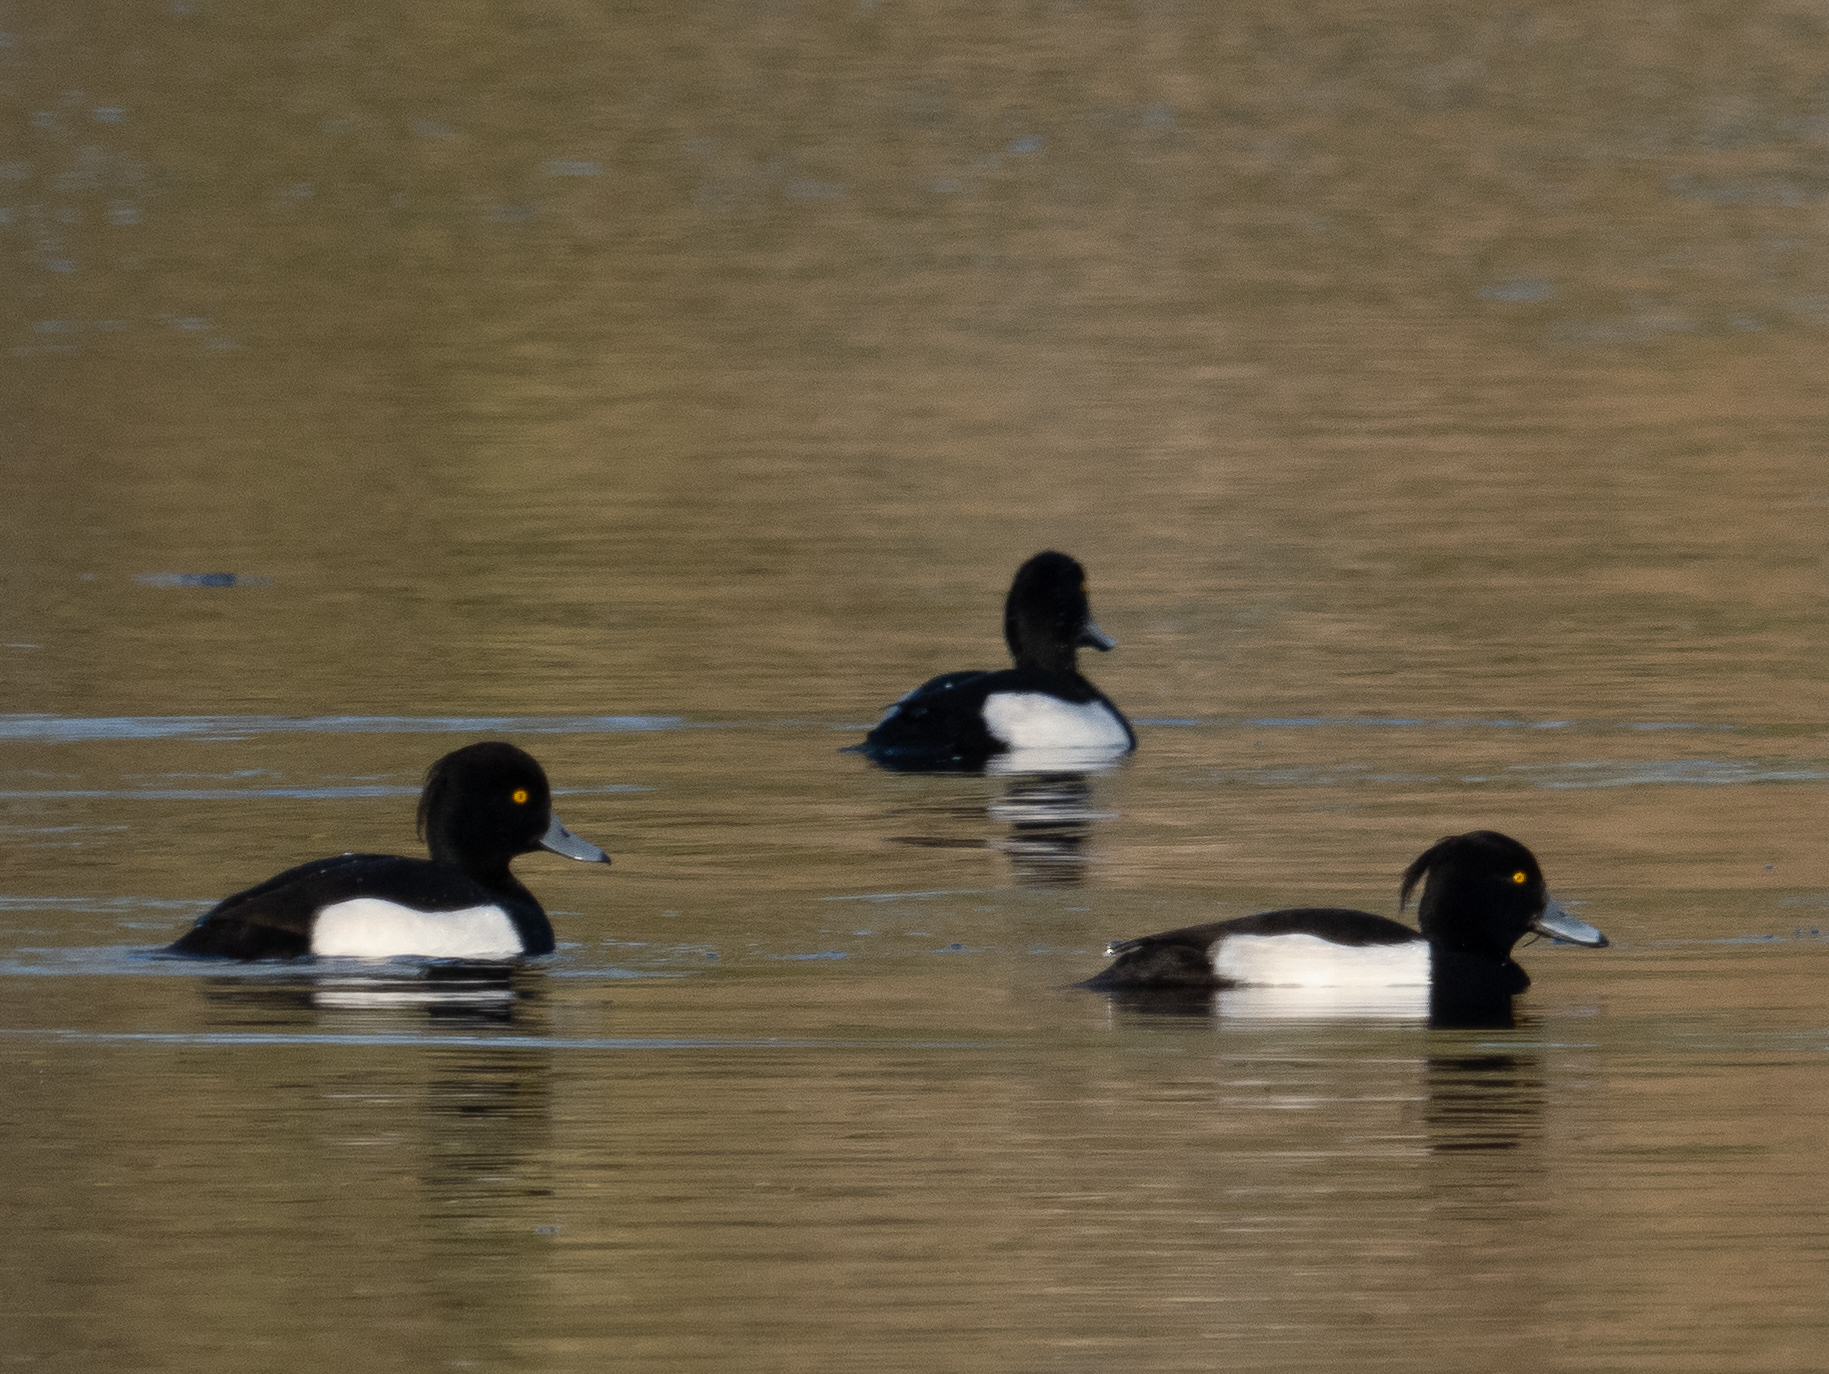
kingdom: Animalia
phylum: Chordata
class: Aves
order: Anseriformes
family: Anatidae
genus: Aythya
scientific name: Aythya fuligula
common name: Tufted duck
